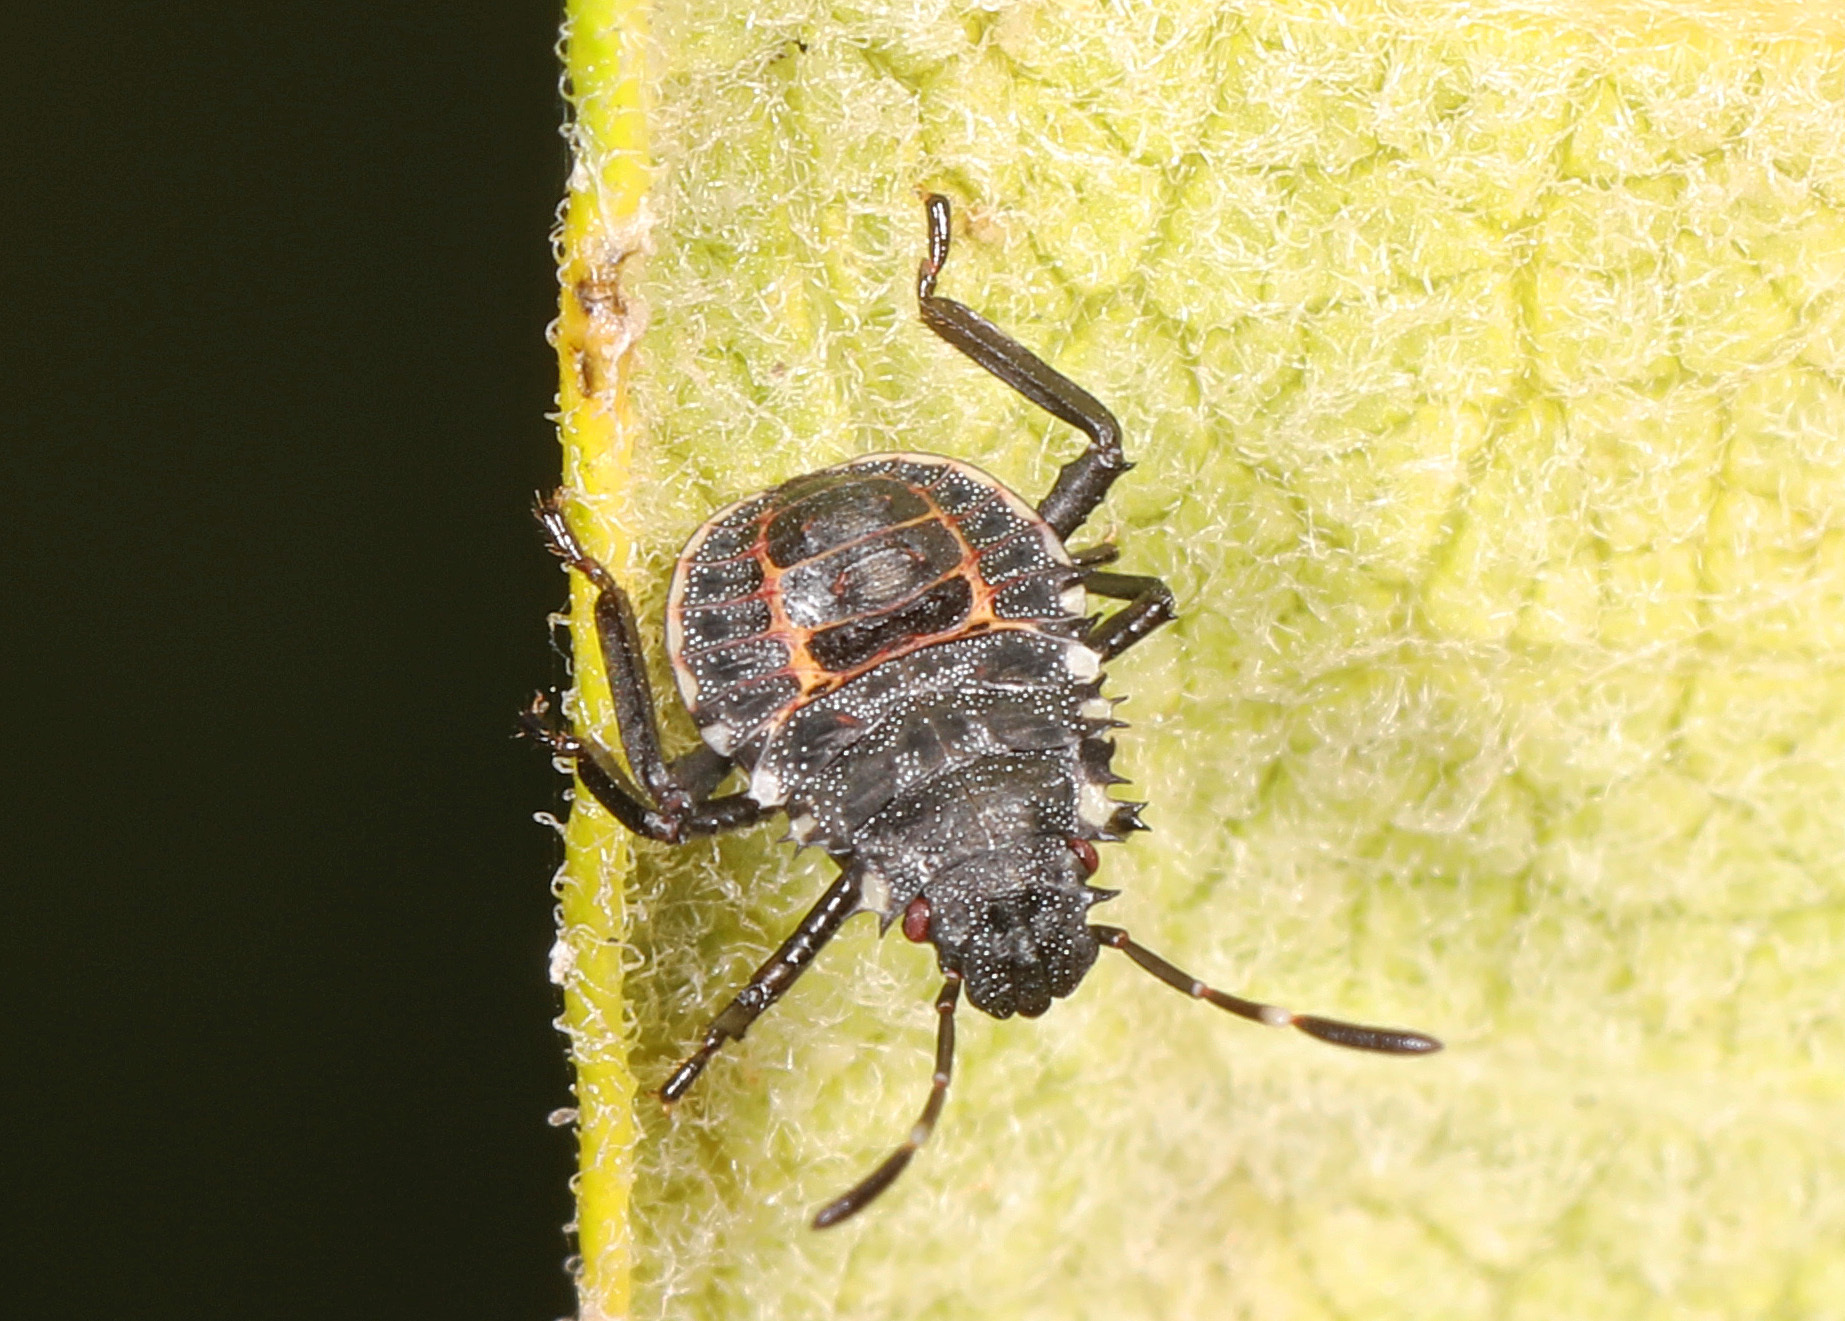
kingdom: Animalia
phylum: Arthropoda
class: Insecta
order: Hemiptera
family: Pentatomidae
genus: Halyomorpha
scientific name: Halyomorpha halys
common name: Brown marmorated stink bug
